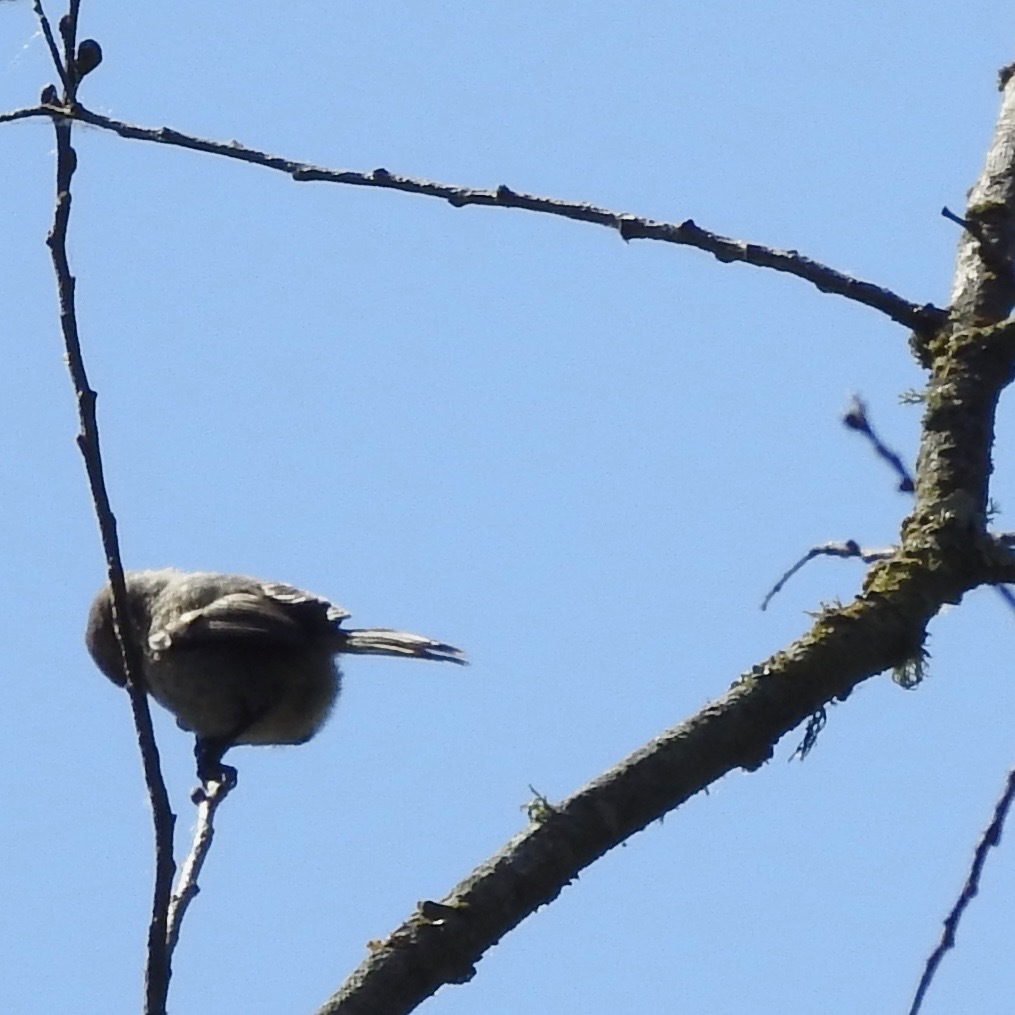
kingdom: Animalia
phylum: Chordata
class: Aves
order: Passeriformes
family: Aegithalidae
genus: Psaltriparus
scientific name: Psaltriparus minimus
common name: American bushtit
